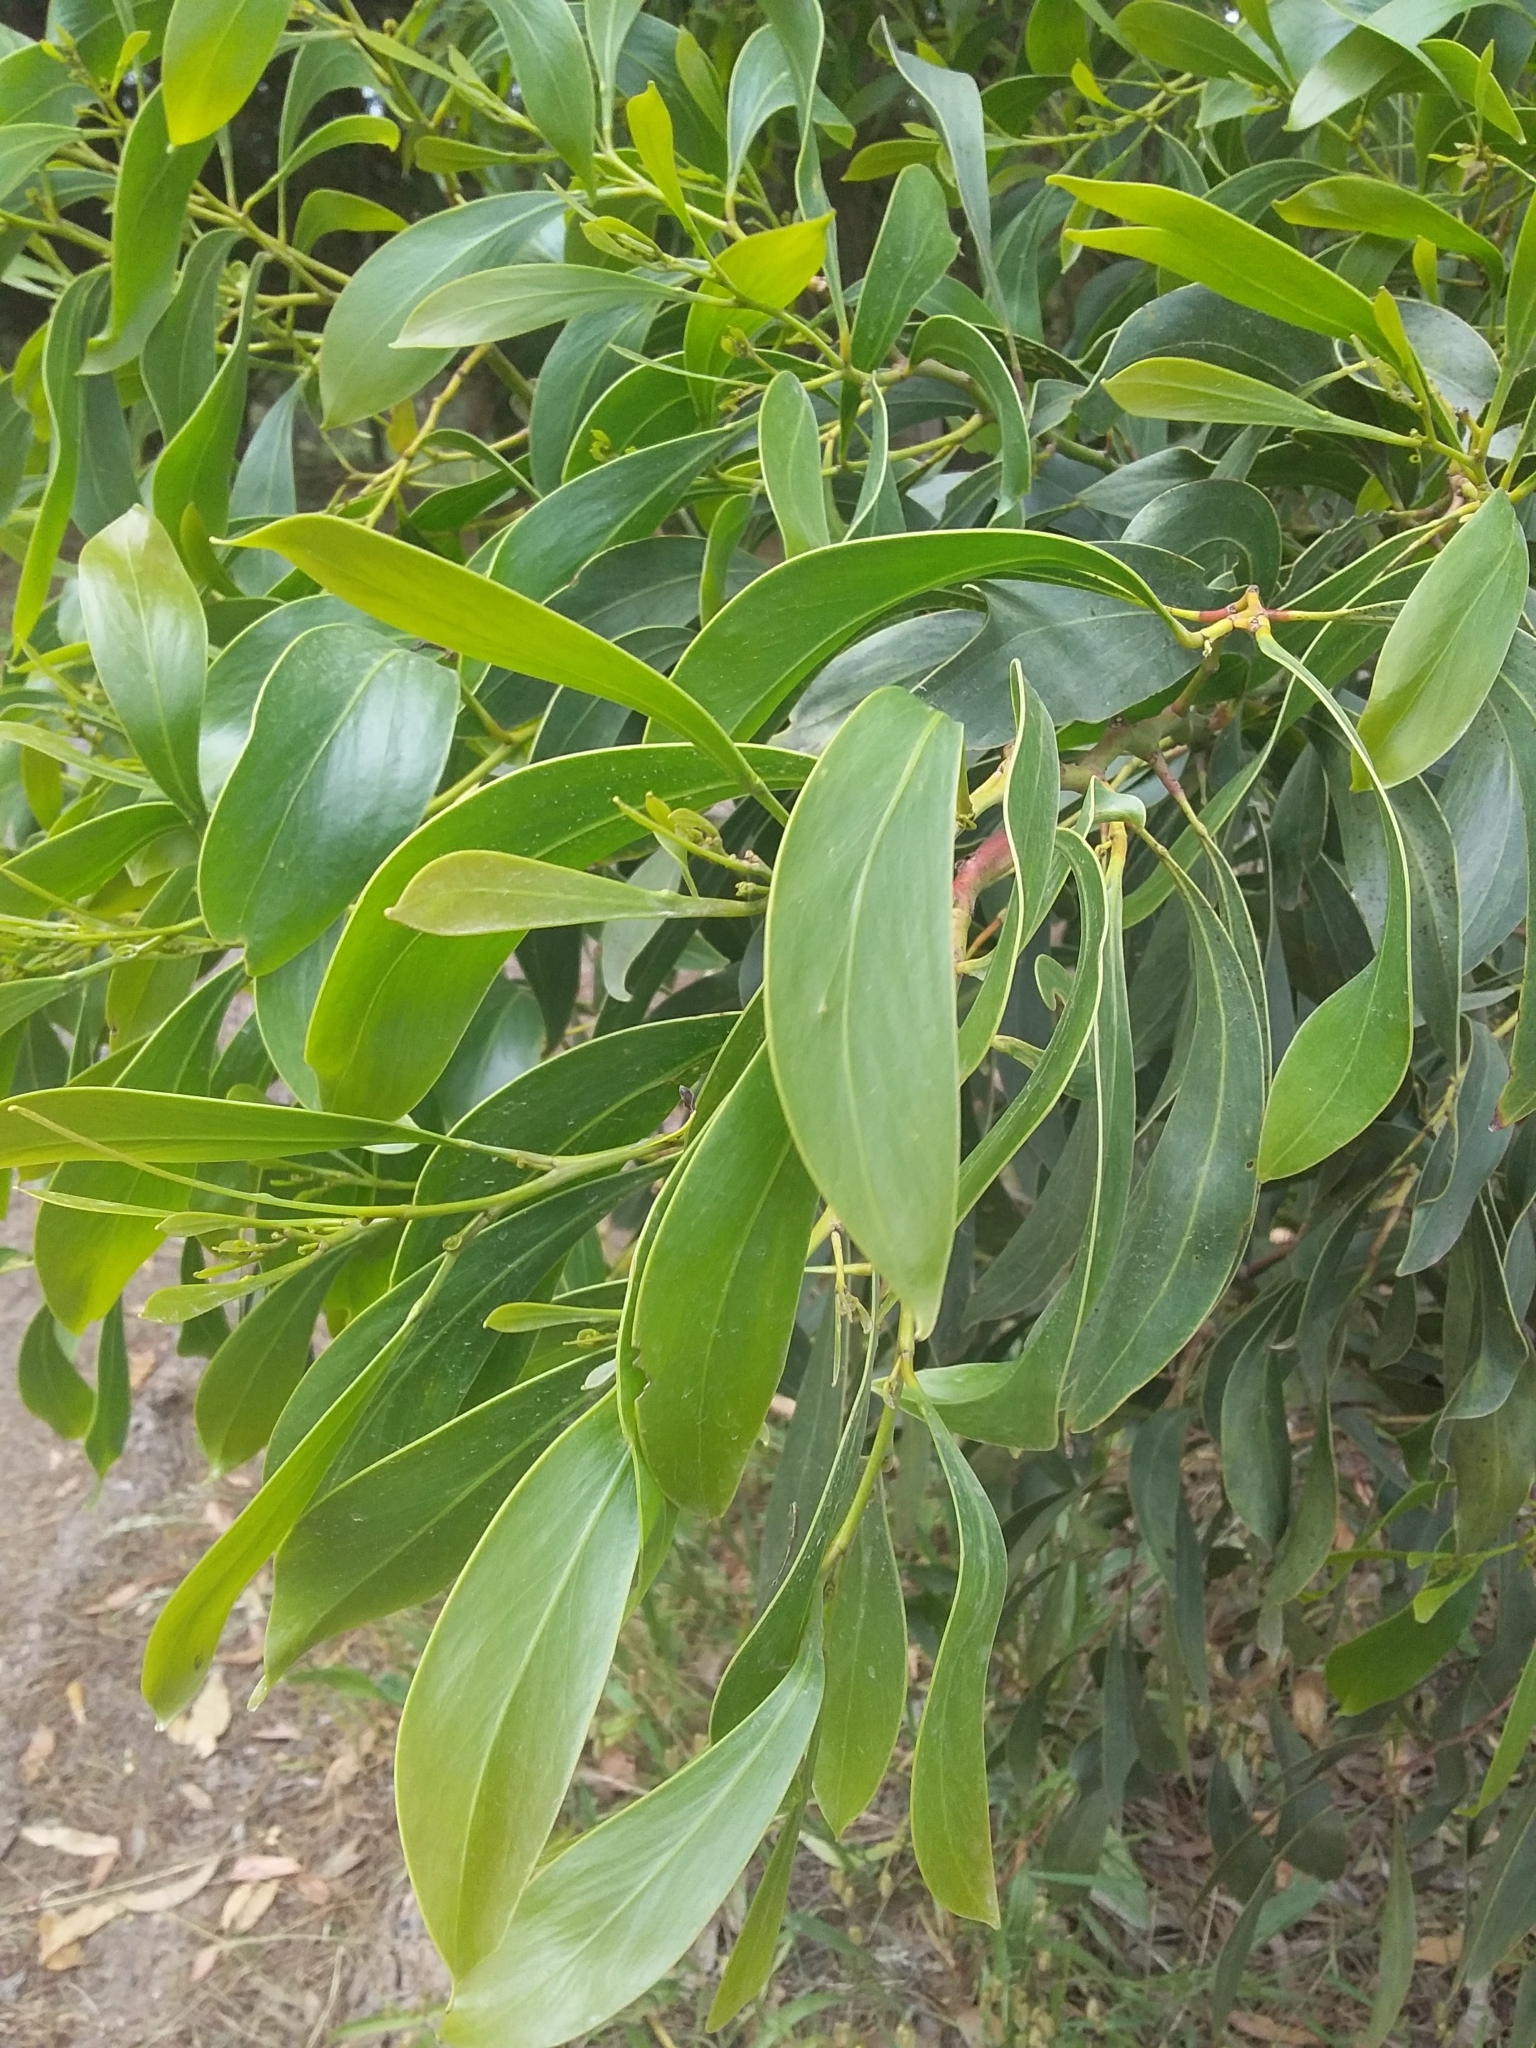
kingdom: Plantae
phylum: Tracheophyta
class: Magnoliopsida
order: Fabales
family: Fabaceae
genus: Acacia
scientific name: Acacia pycnantha
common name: Golden wattle
